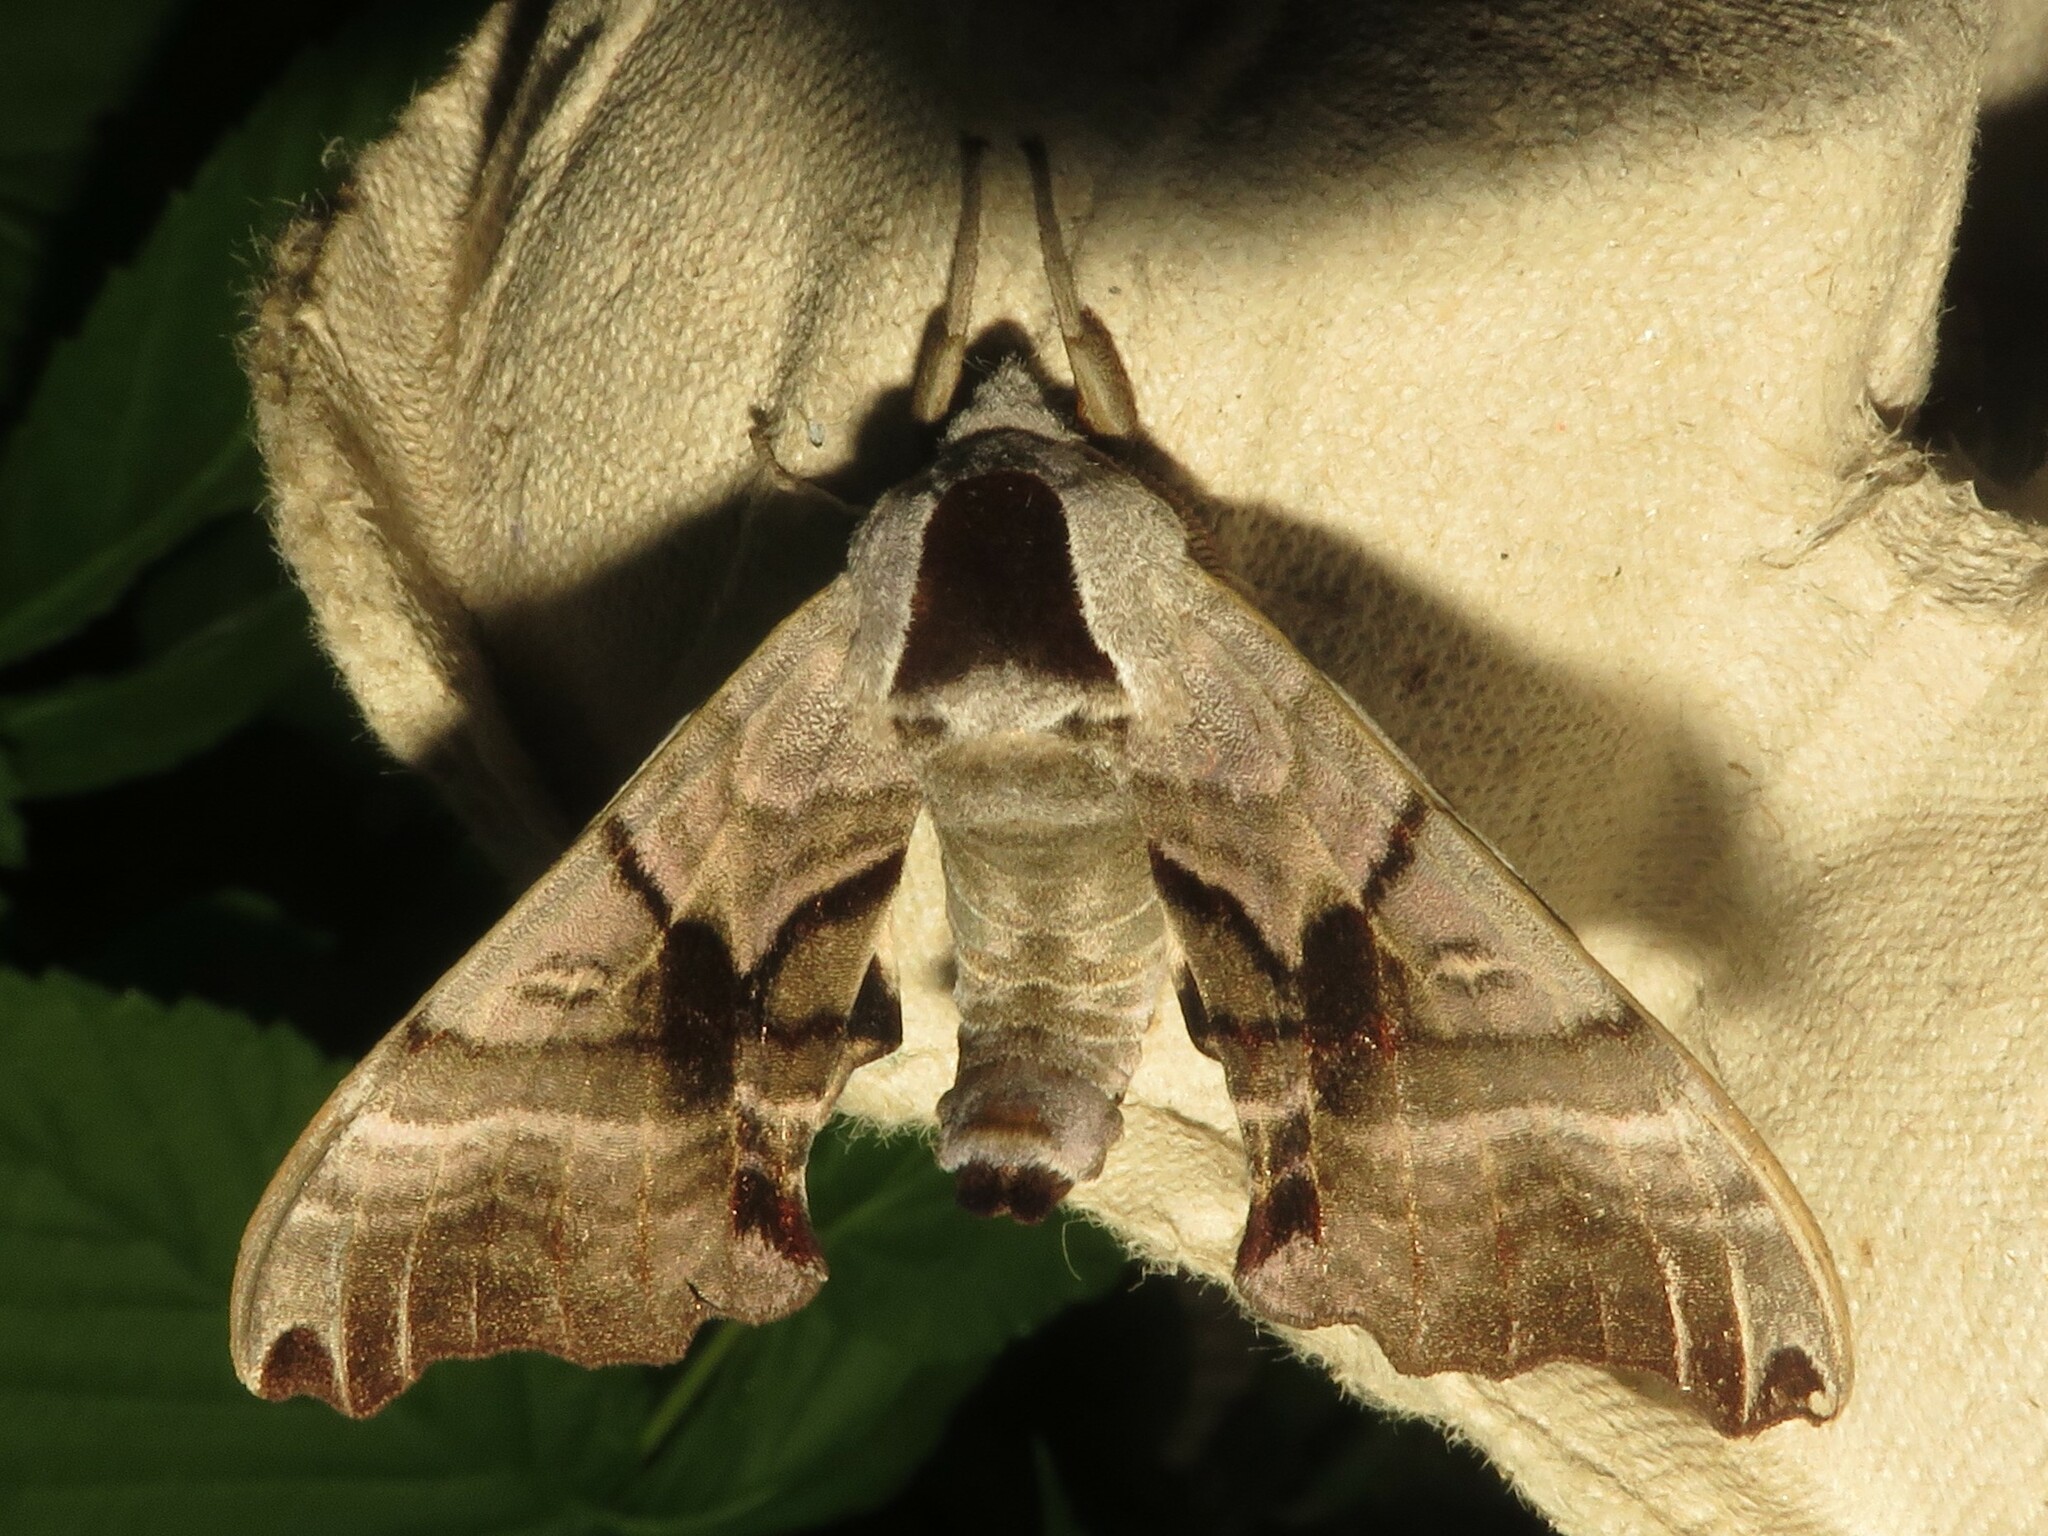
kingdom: Animalia
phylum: Arthropoda
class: Insecta
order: Lepidoptera
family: Sphingidae
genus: Smerinthus
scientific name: Smerinthus jamaicensis
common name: Twin spotted sphinx
